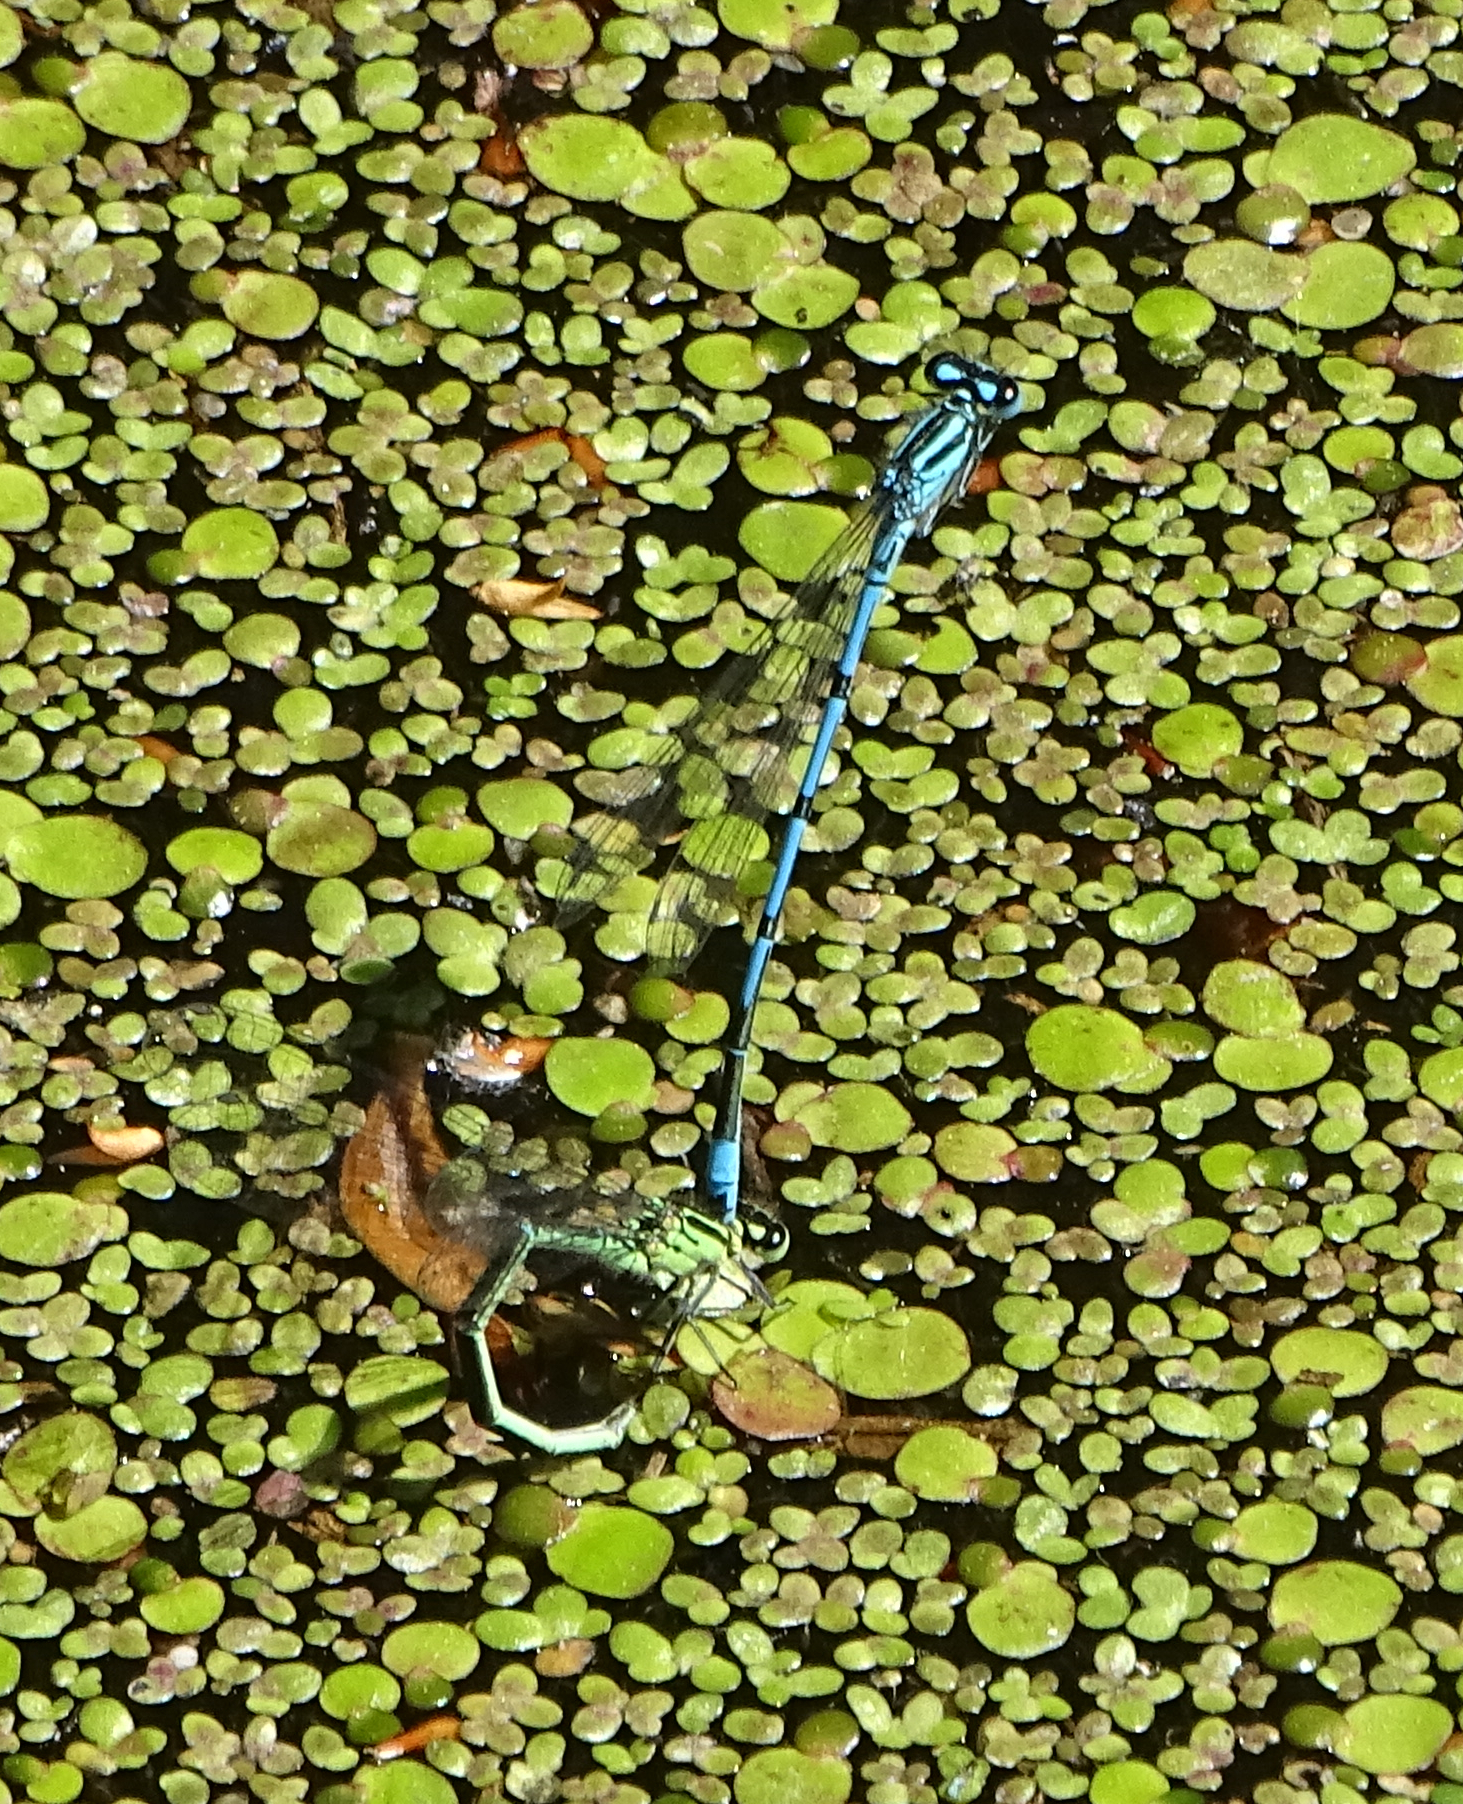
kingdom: Animalia
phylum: Arthropoda
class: Insecta
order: Odonata
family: Coenagrionidae
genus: Coenagrion
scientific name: Coenagrion puella
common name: Azure damselfly
